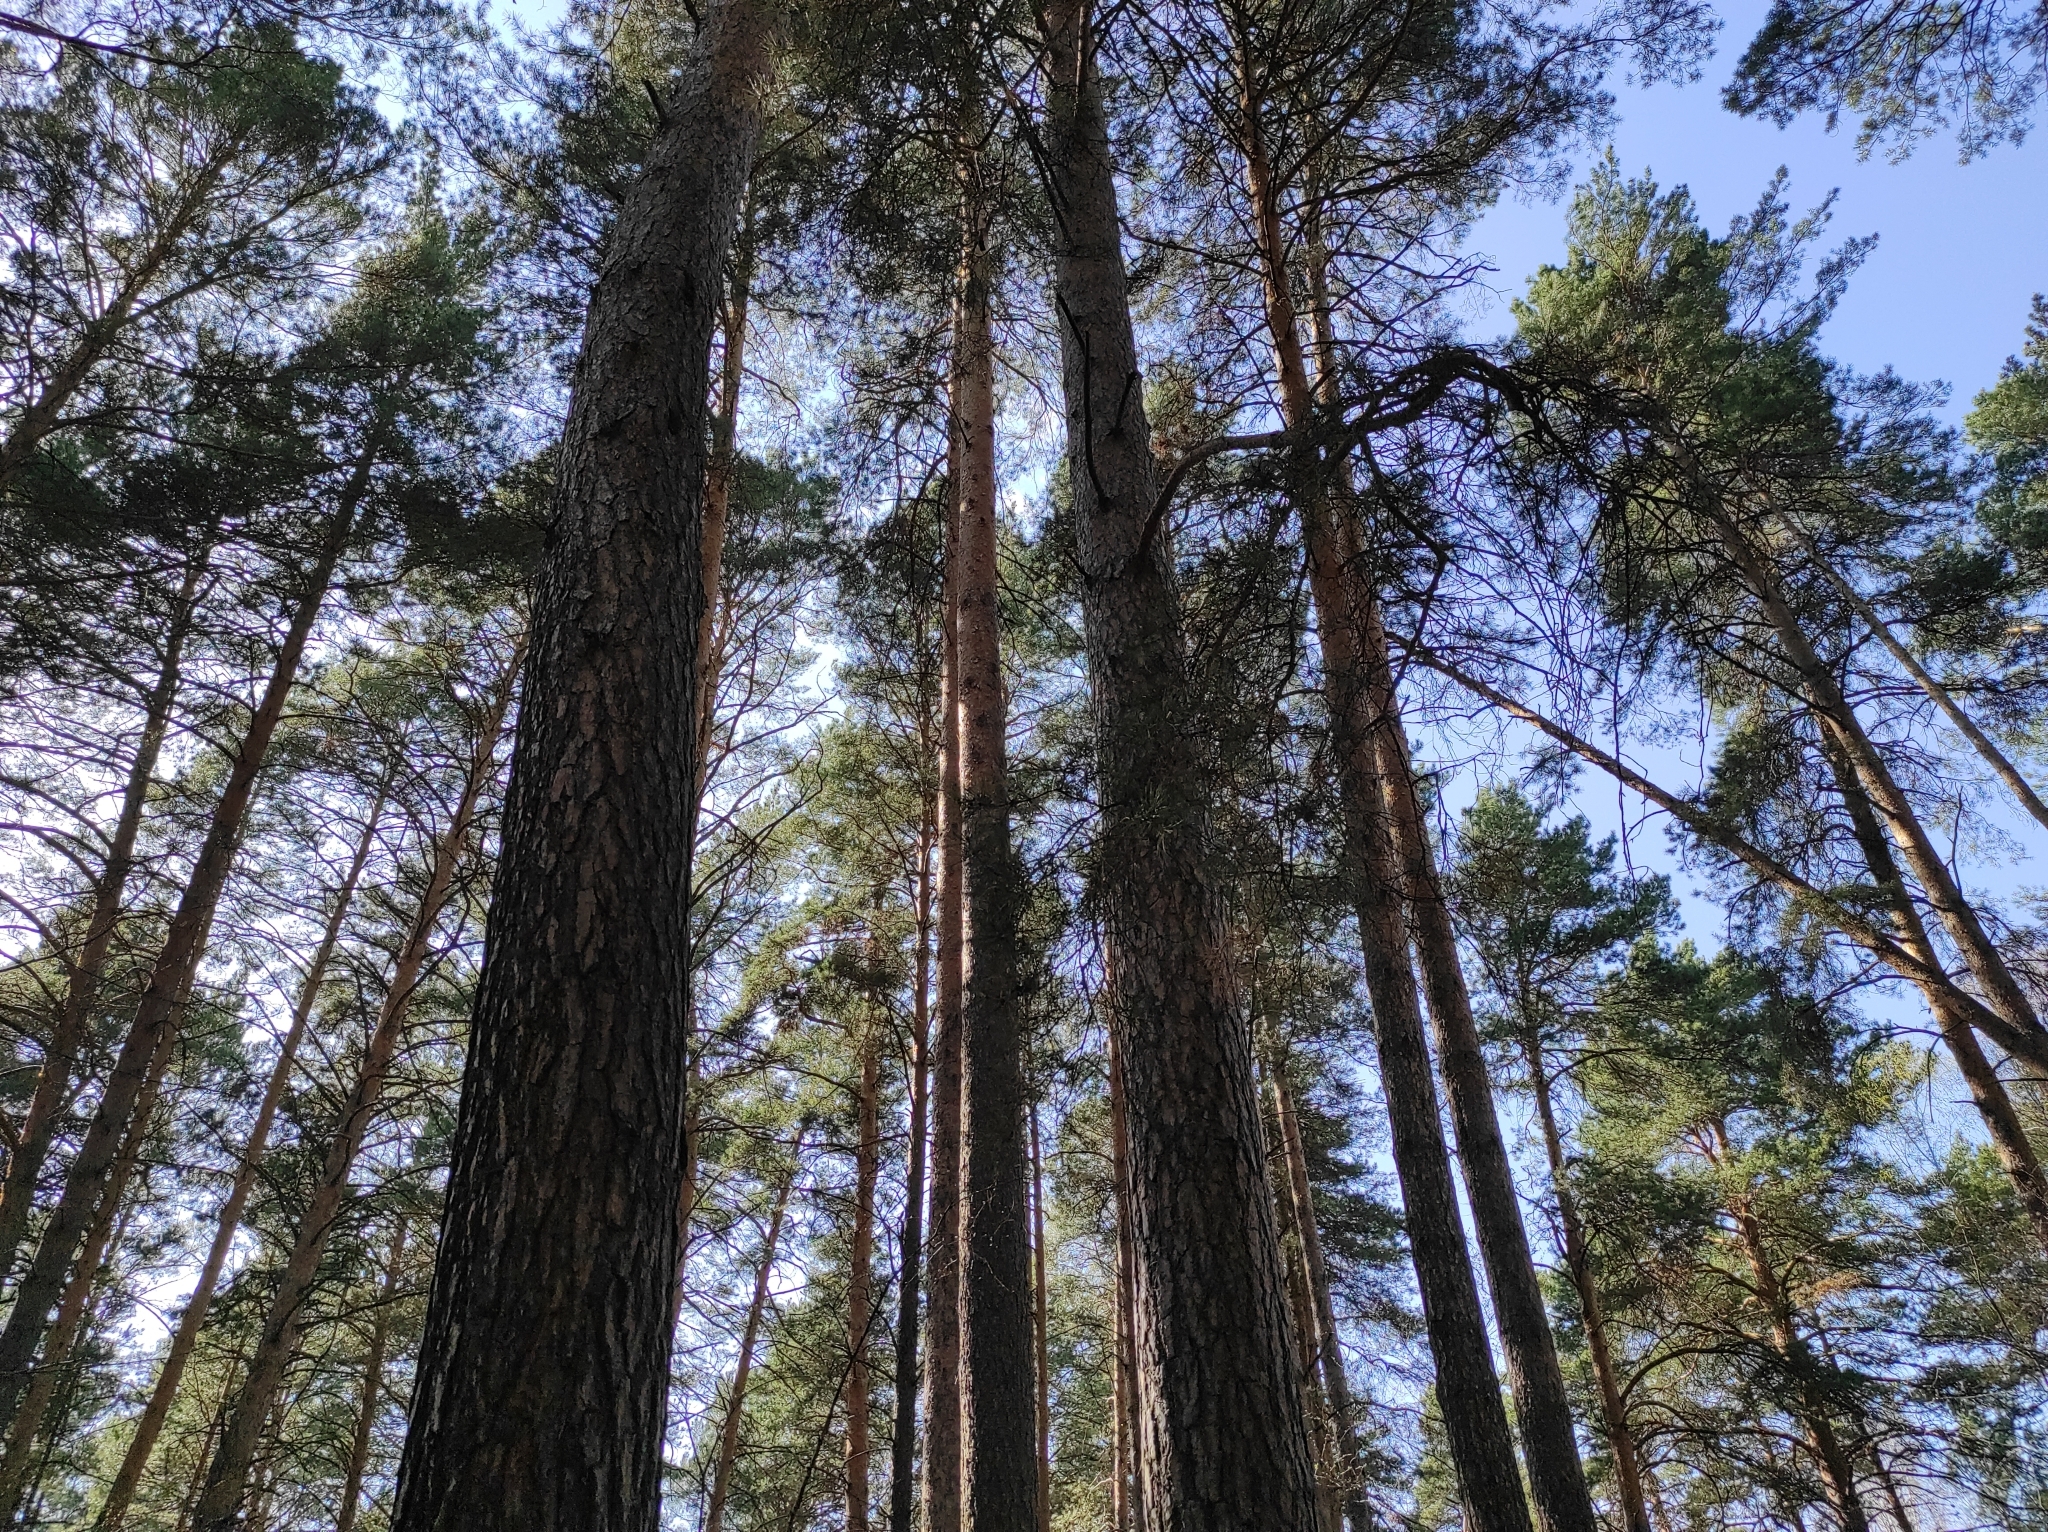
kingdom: Plantae
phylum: Tracheophyta
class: Pinopsida
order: Pinales
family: Pinaceae
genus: Pinus
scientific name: Pinus sylvestris
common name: Scots pine
